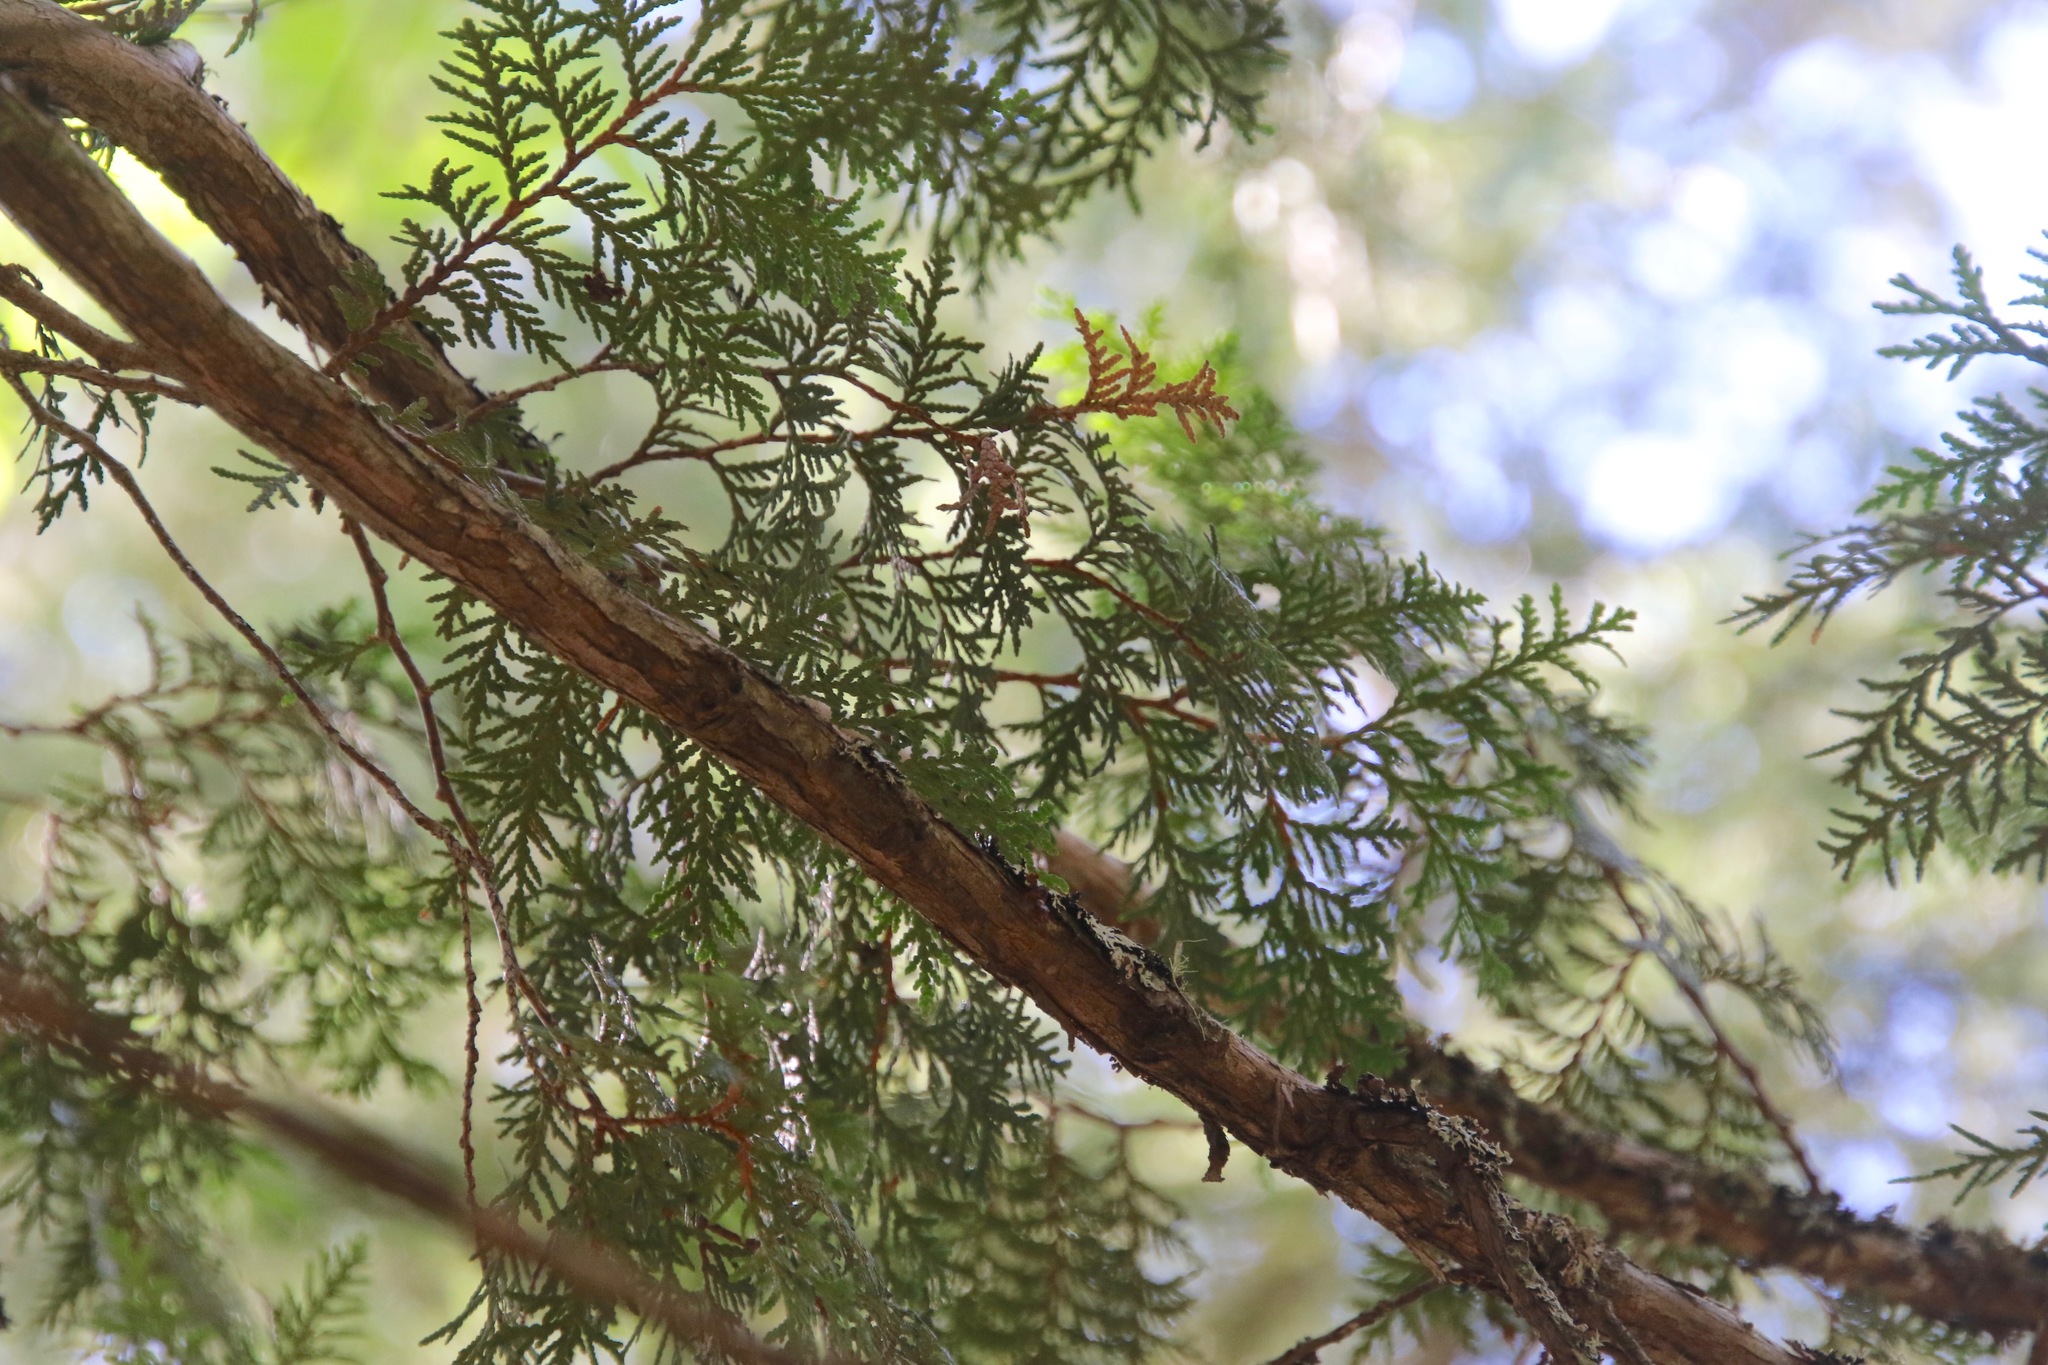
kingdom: Plantae
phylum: Tracheophyta
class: Pinopsida
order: Pinales
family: Cupressaceae
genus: Thuja
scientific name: Thuja occidentalis
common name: Northern white-cedar
